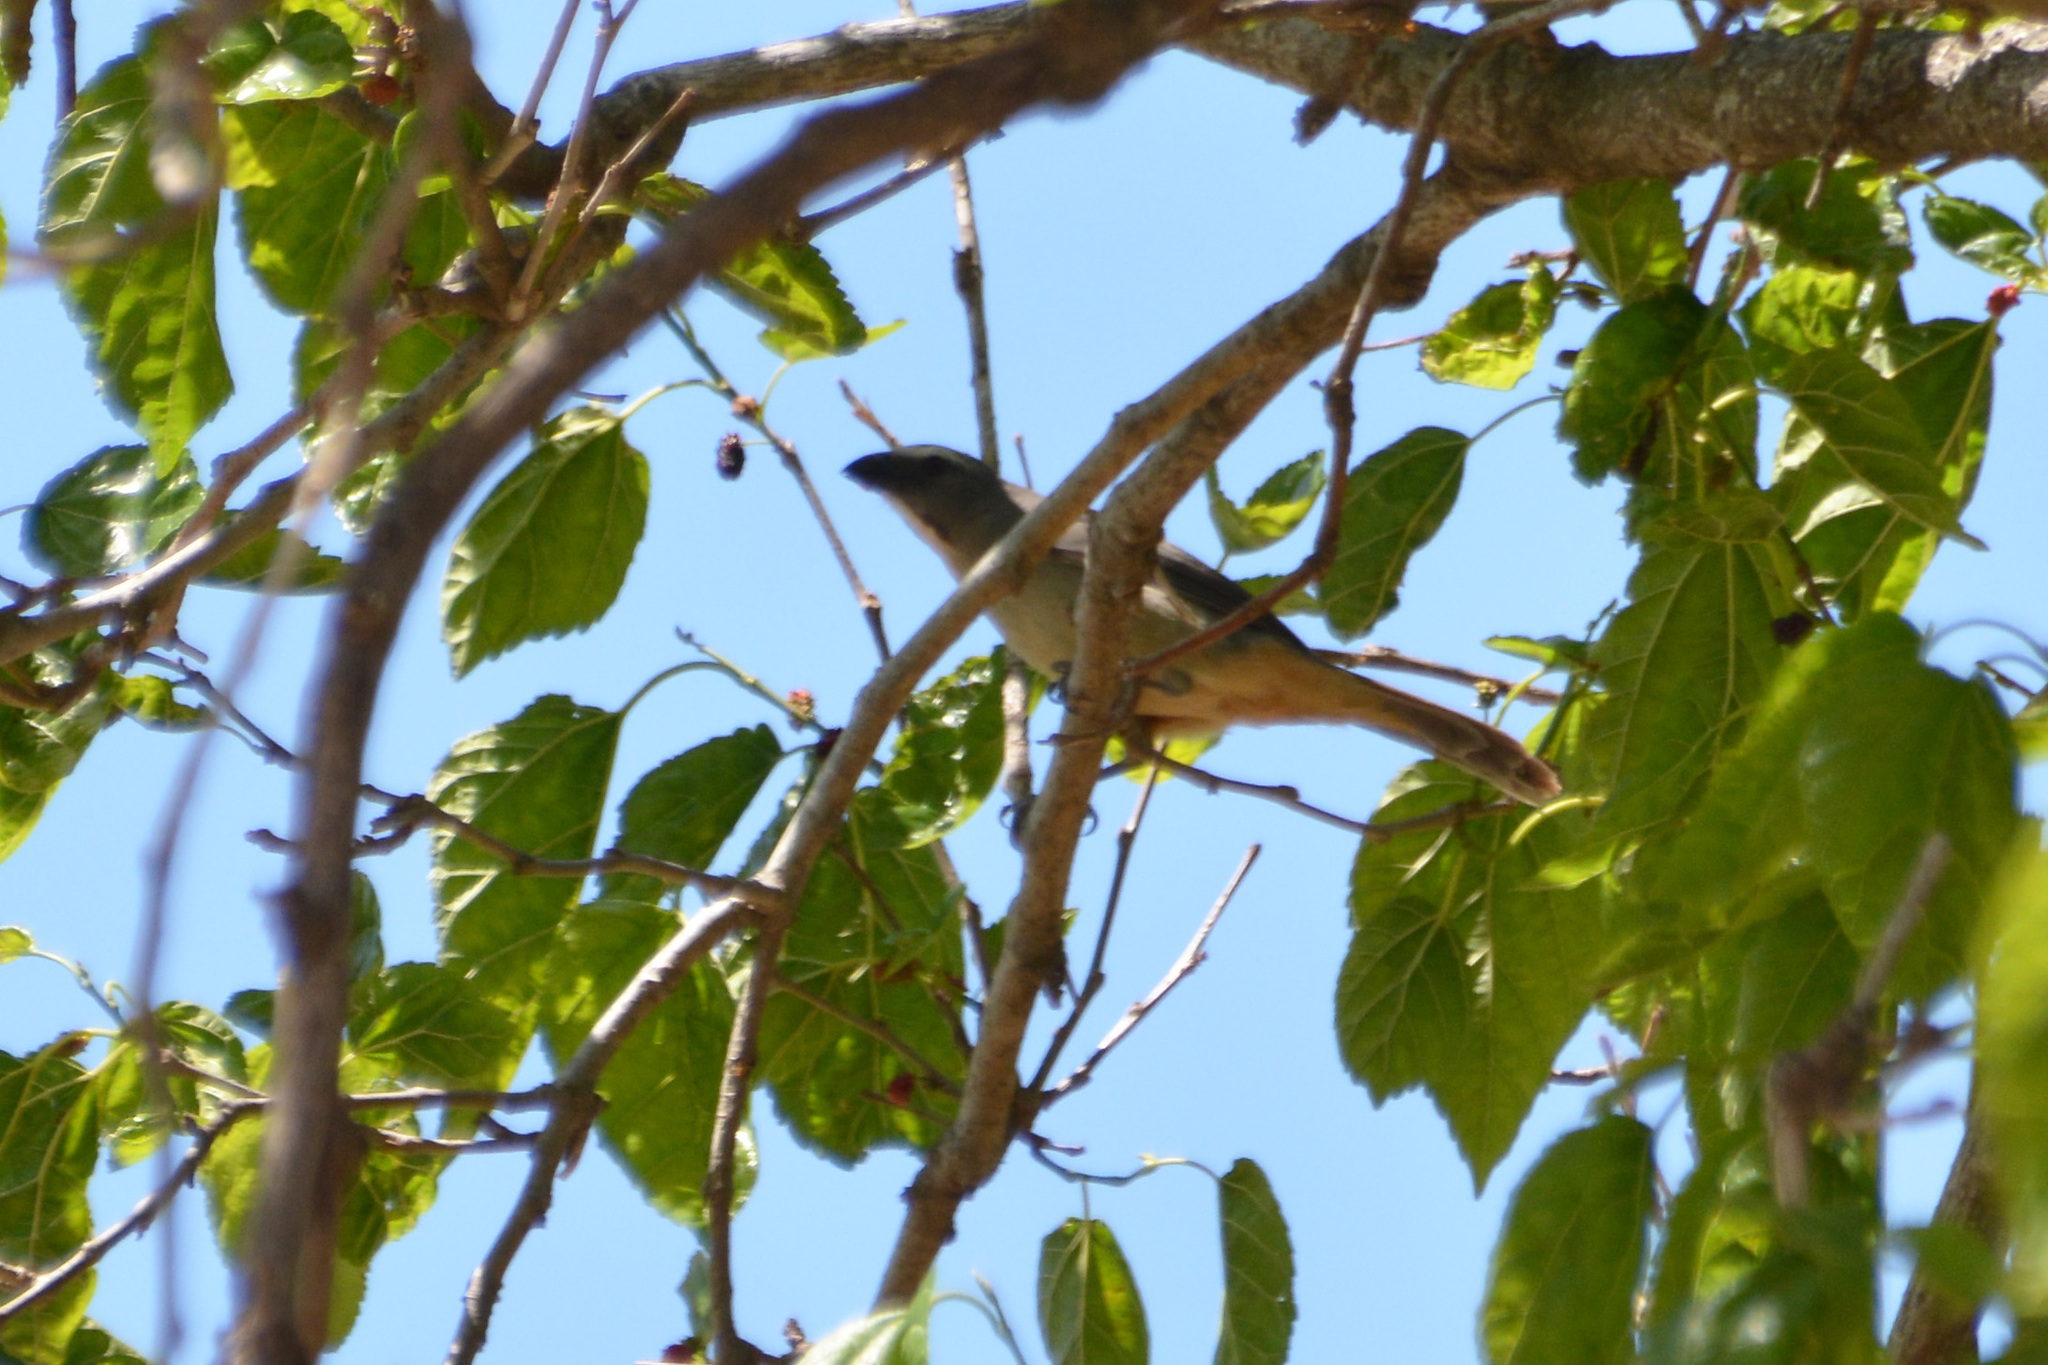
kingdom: Animalia
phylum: Chordata
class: Aves
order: Passeriformes
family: Thraupidae
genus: Saltator
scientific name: Saltator coerulescens
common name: Grayish saltator
